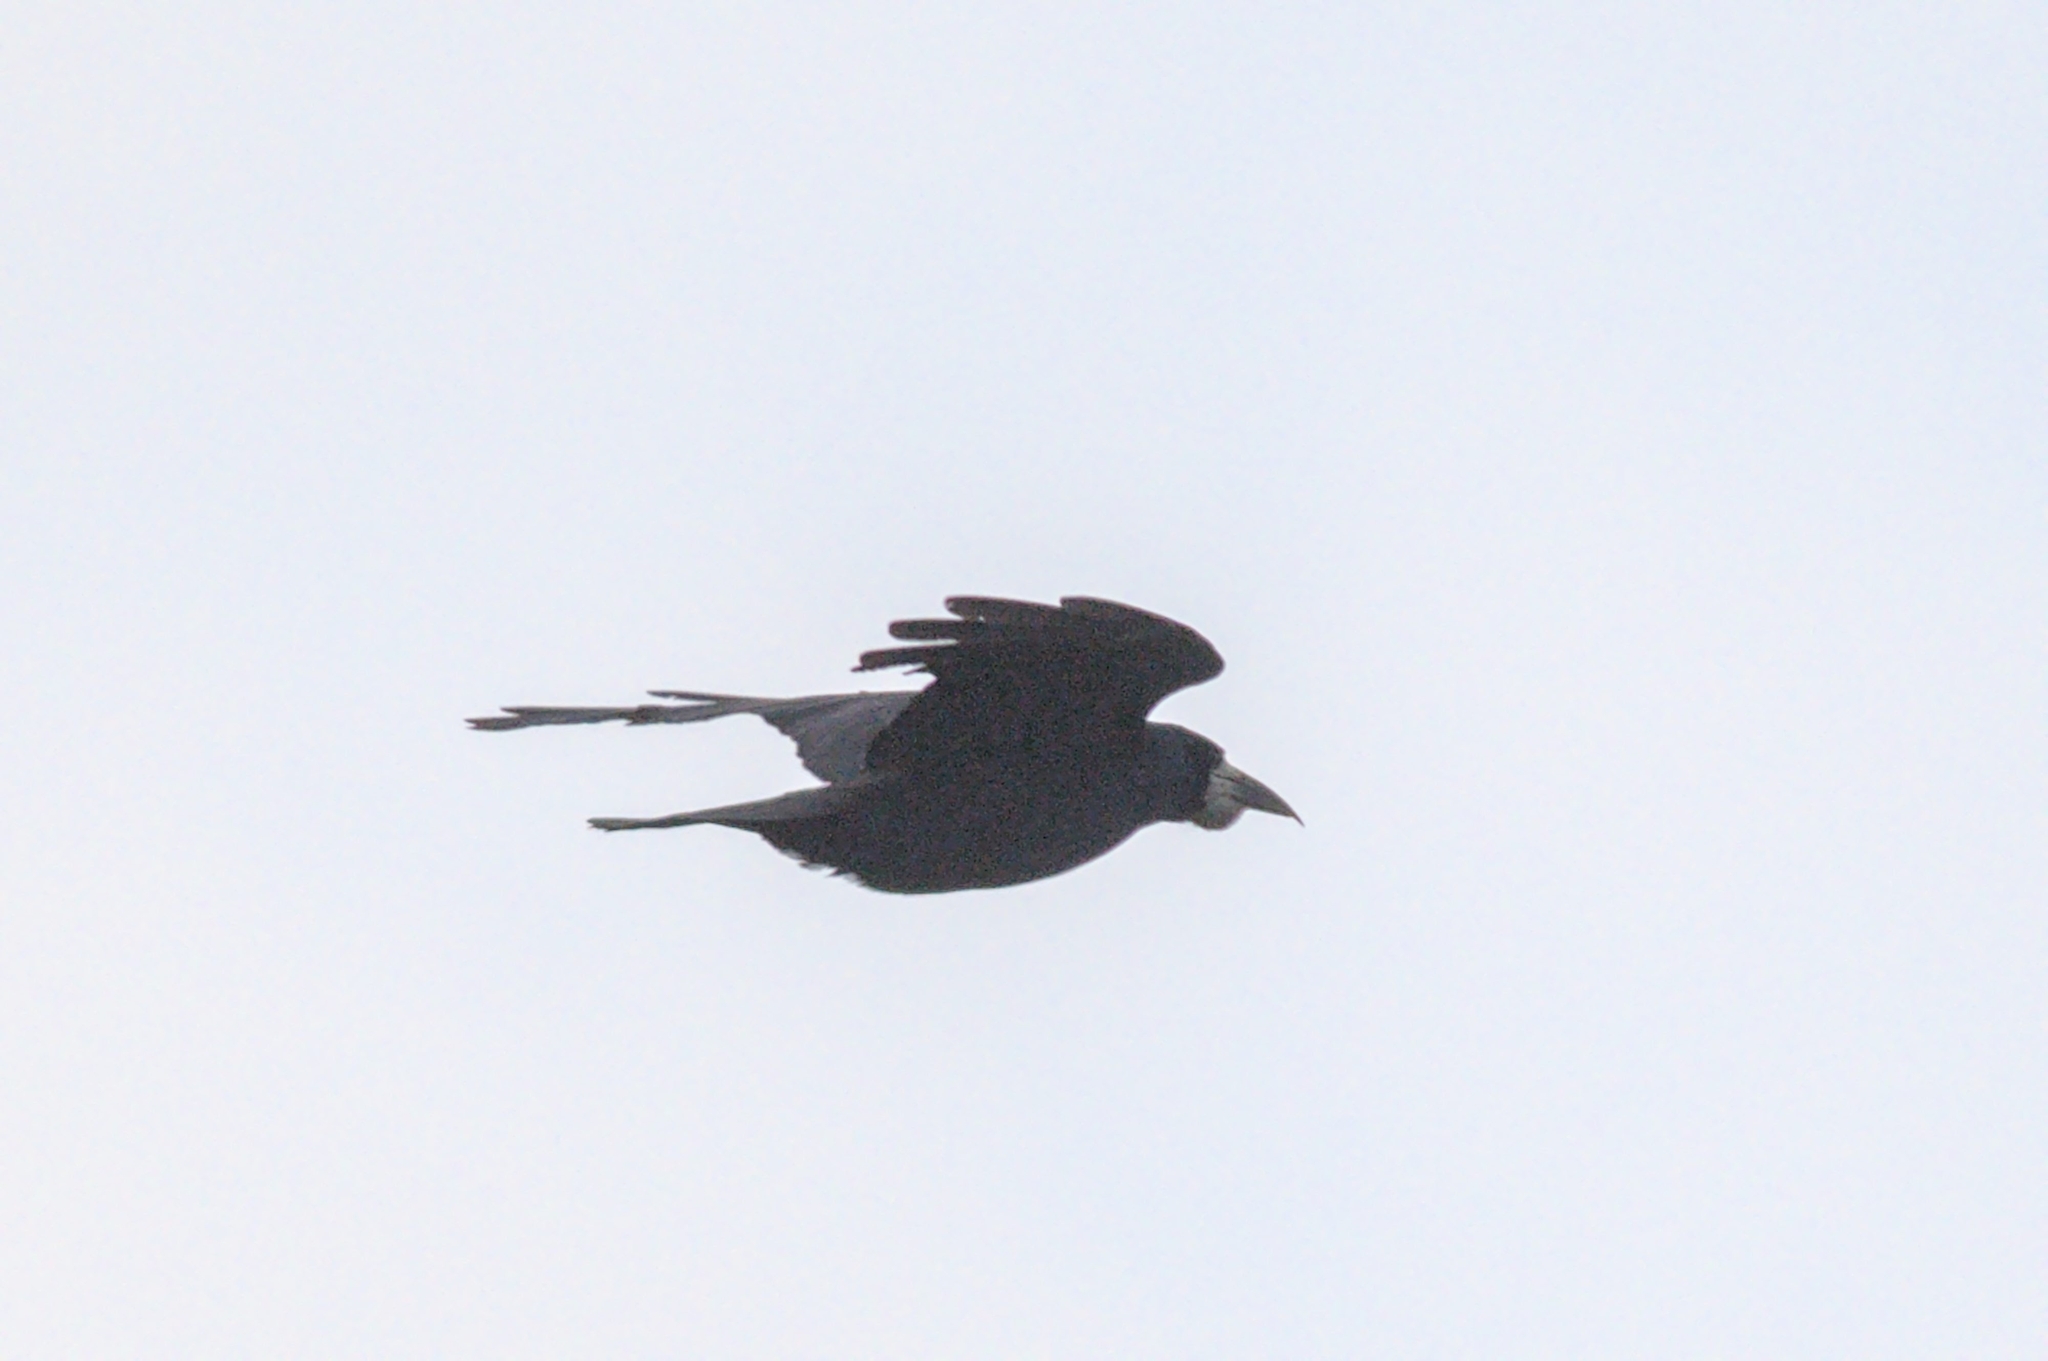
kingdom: Animalia
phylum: Chordata
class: Aves
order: Passeriformes
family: Corvidae
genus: Corvus
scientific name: Corvus frugilegus
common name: Rook
